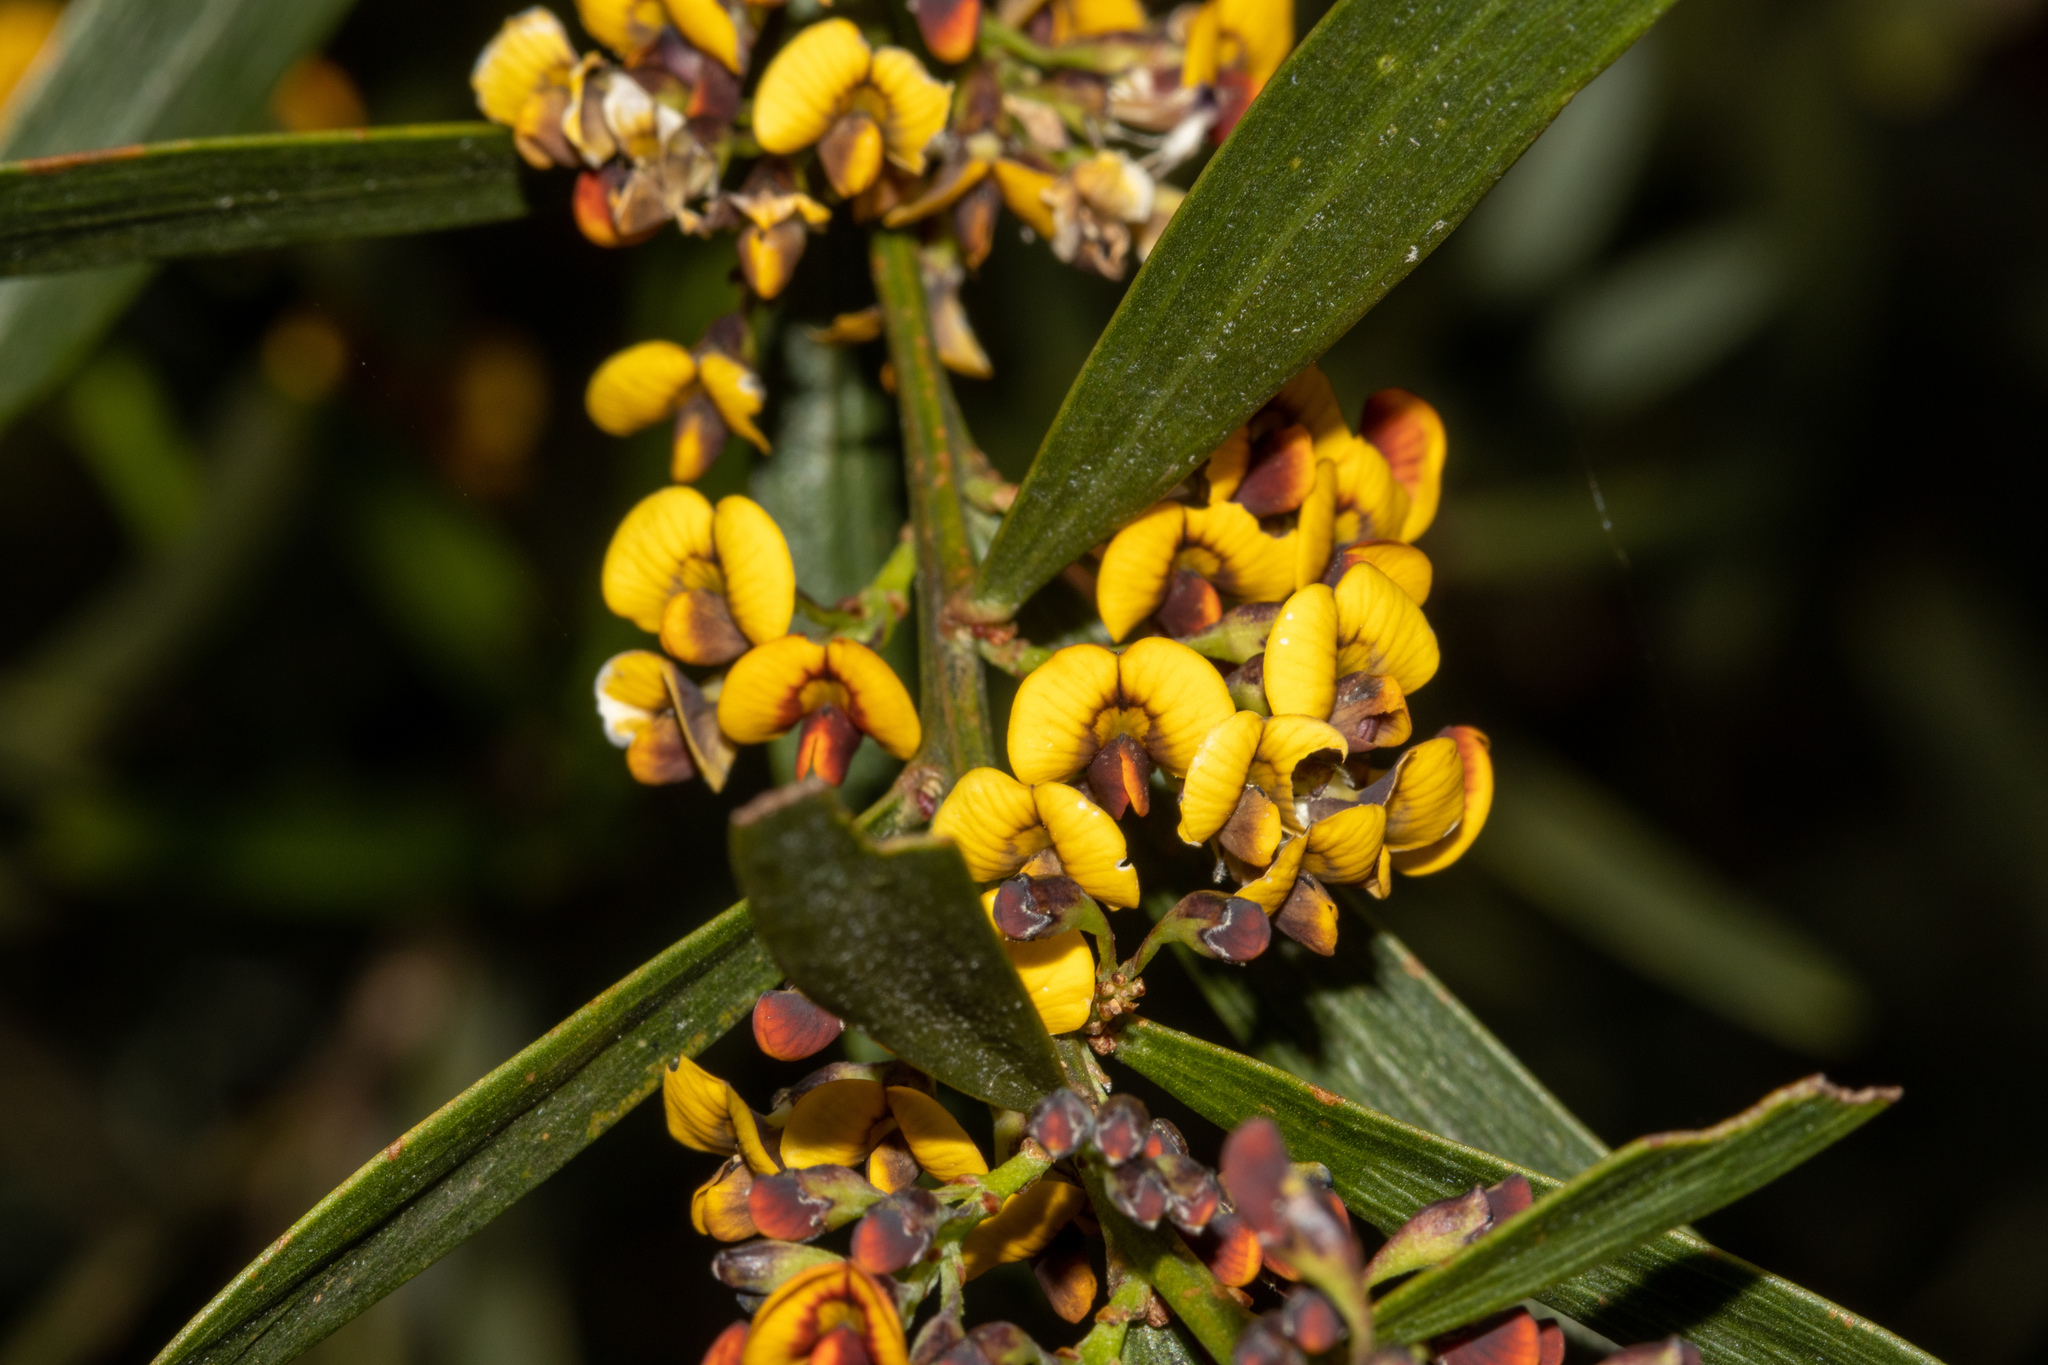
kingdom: Plantae
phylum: Tracheophyta
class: Magnoliopsida
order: Fabales
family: Fabaceae
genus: Daviesia
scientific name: Daviesia leptophylla
